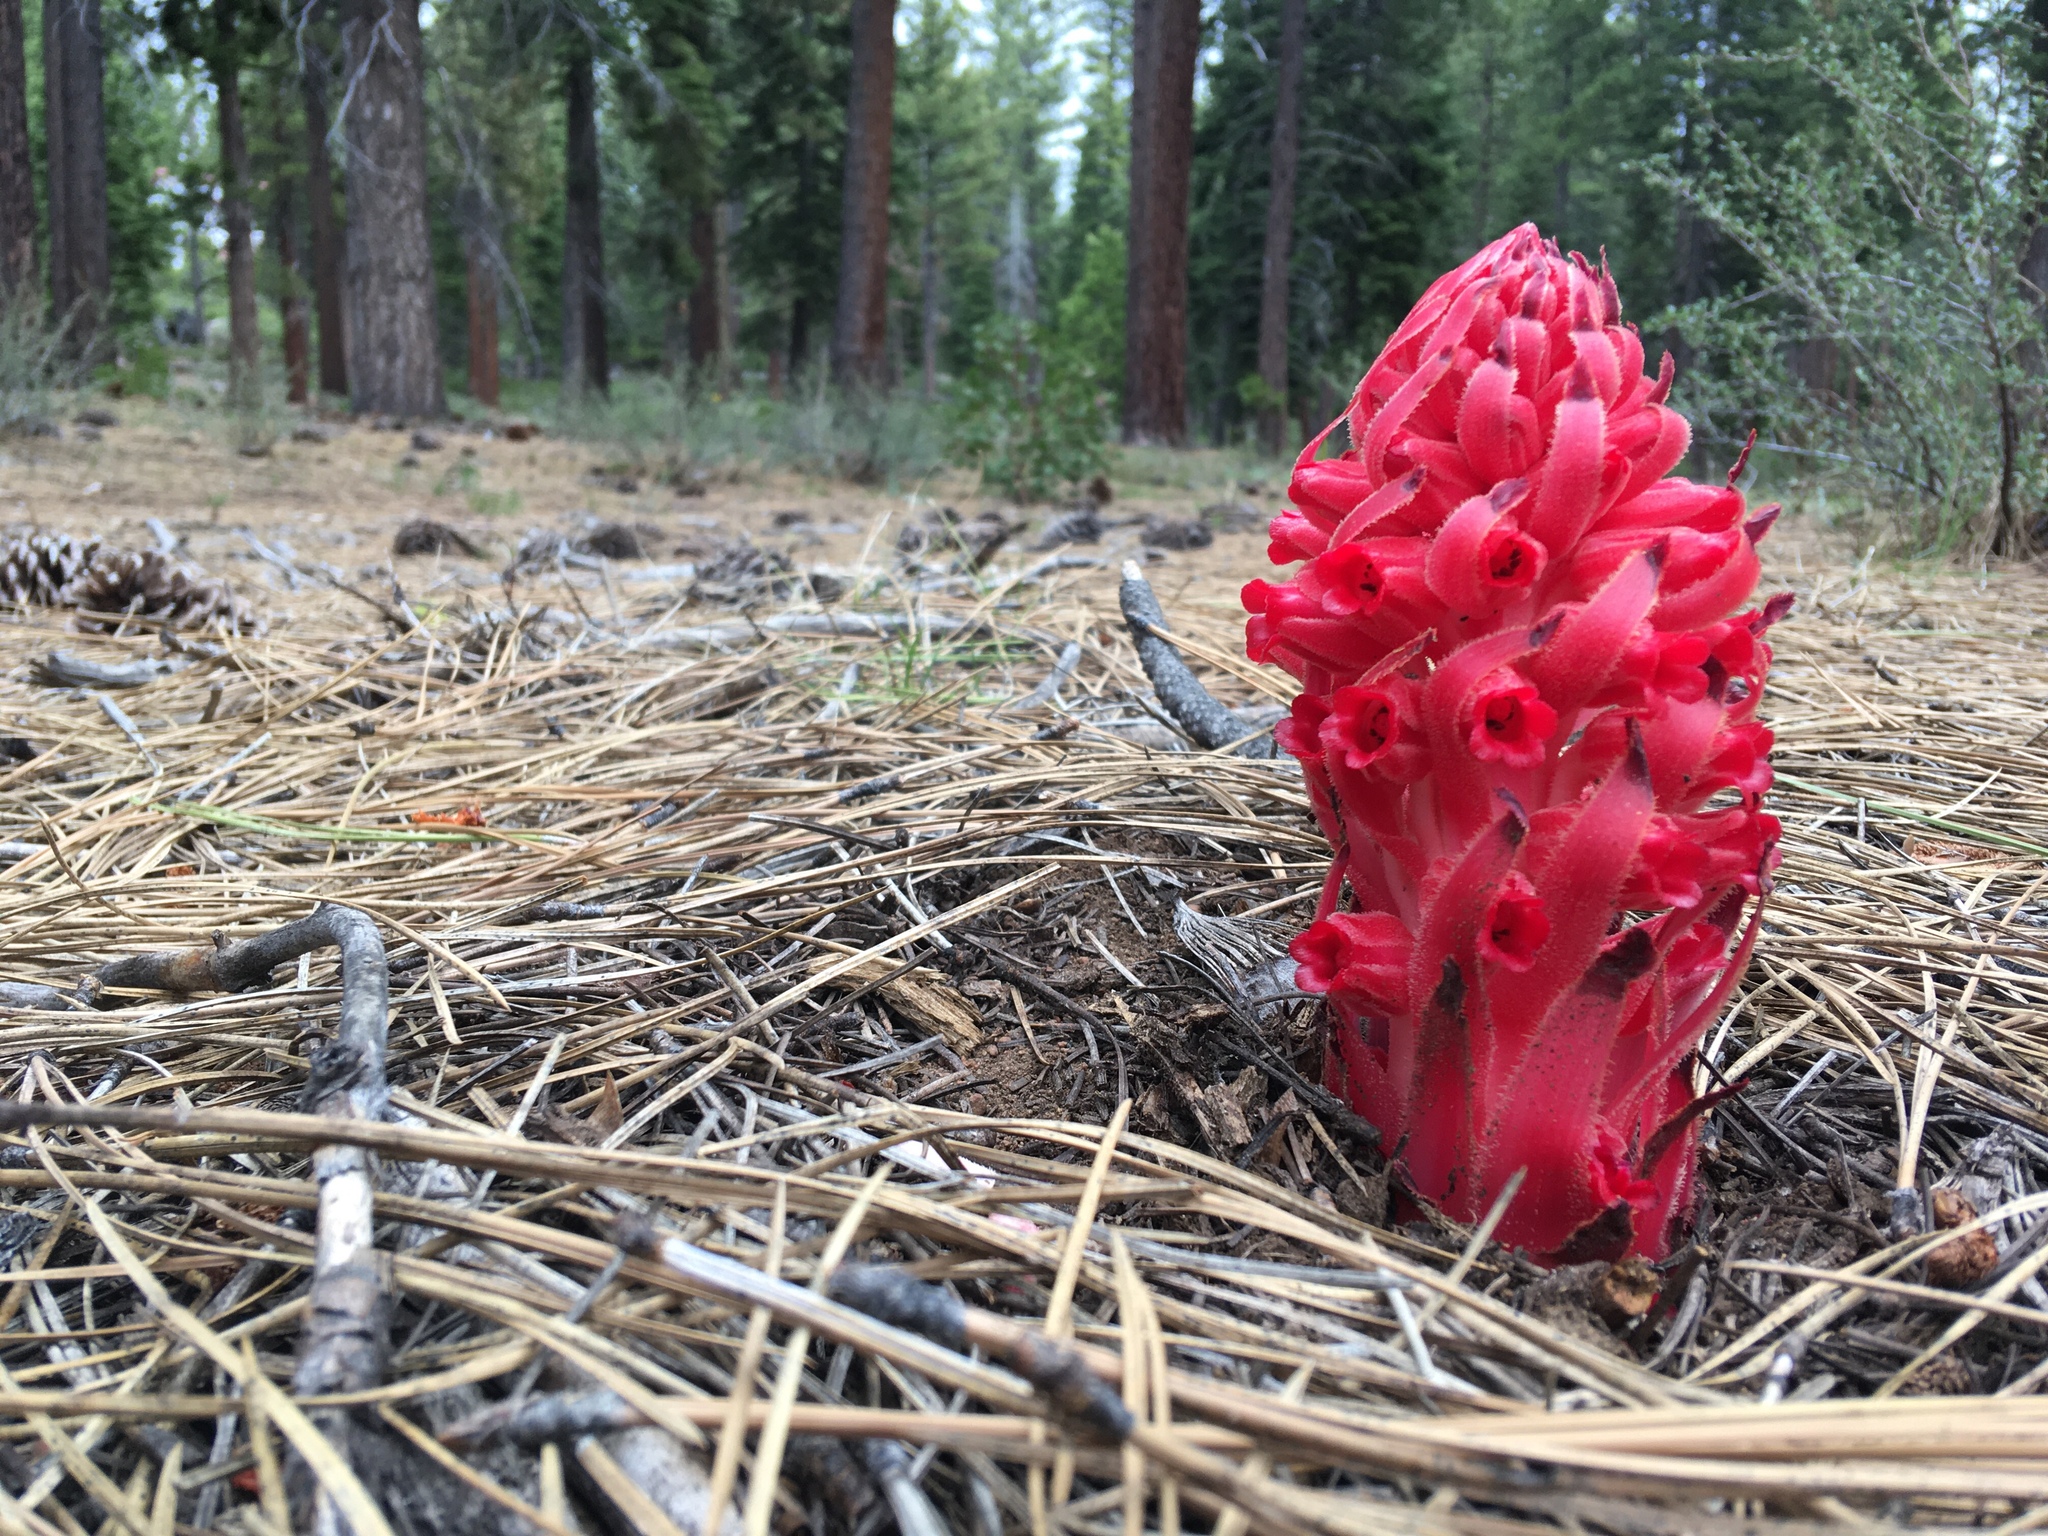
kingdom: Plantae
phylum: Tracheophyta
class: Magnoliopsida
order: Ericales
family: Ericaceae
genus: Sarcodes
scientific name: Sarcodes sanguinea
